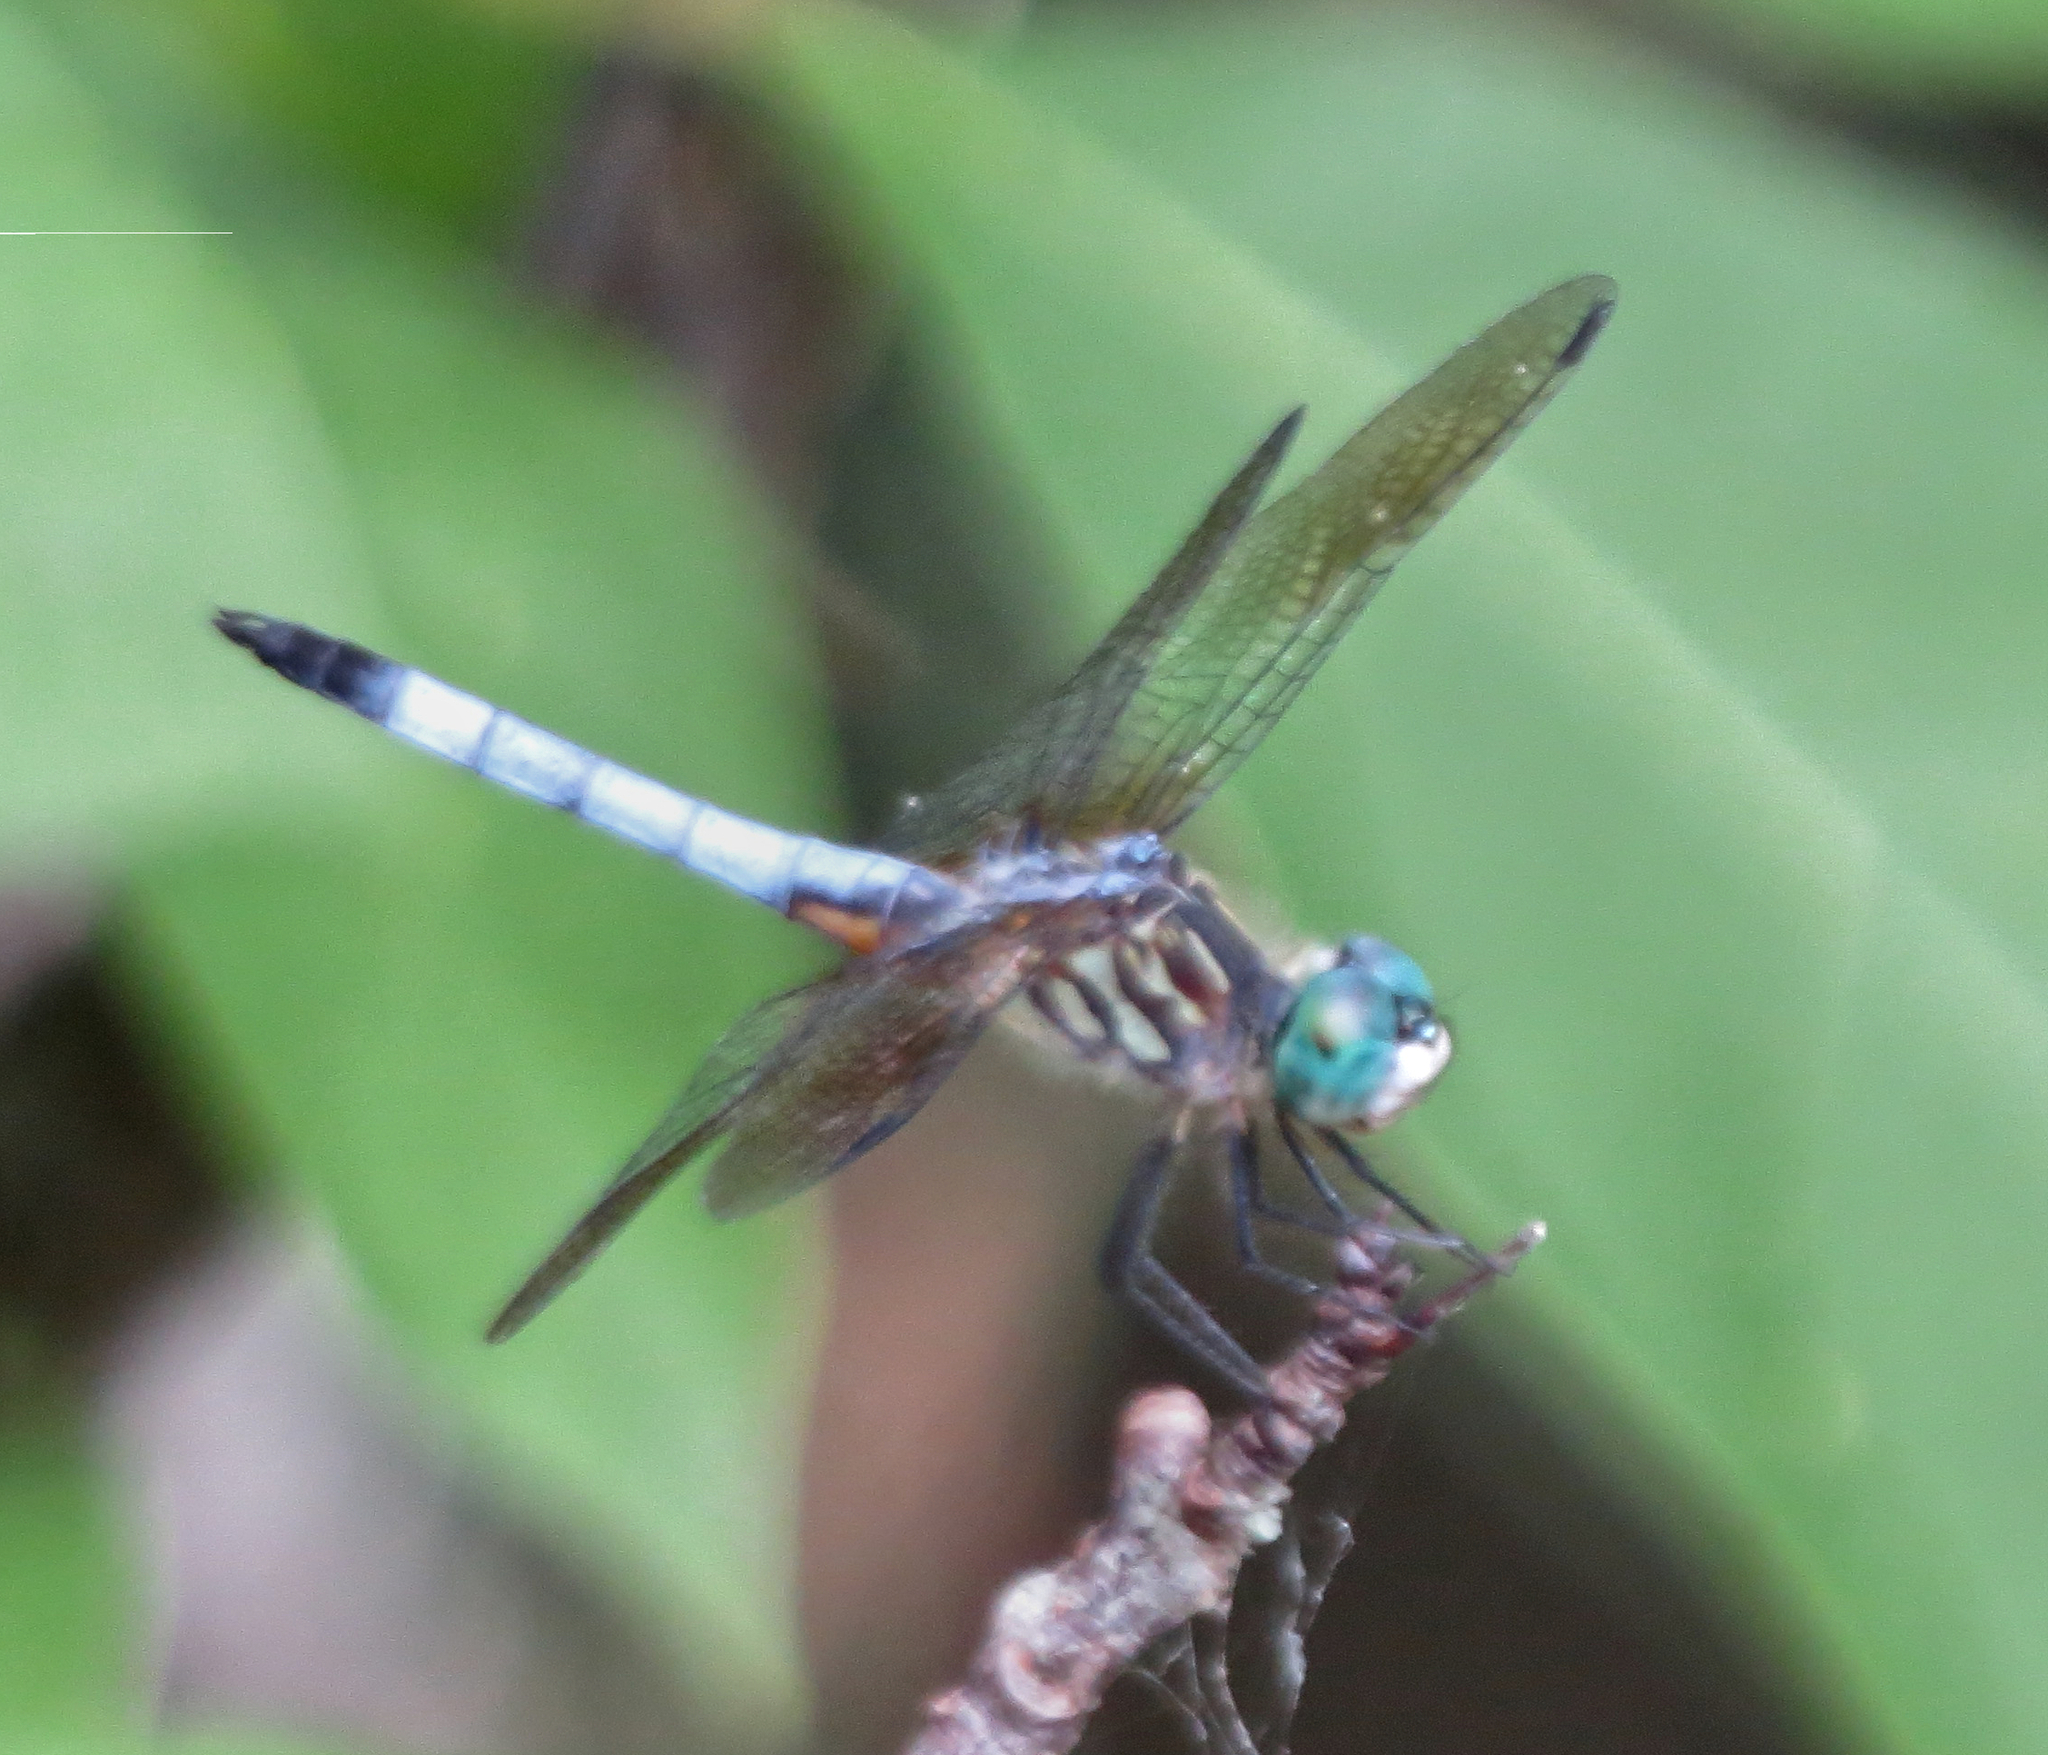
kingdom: Animalia
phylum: Arthropoda
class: Insecta
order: Odonata
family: Libellulidae
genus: Pachydiplax
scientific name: Pachydiplax longipennis
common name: Blue dasher
